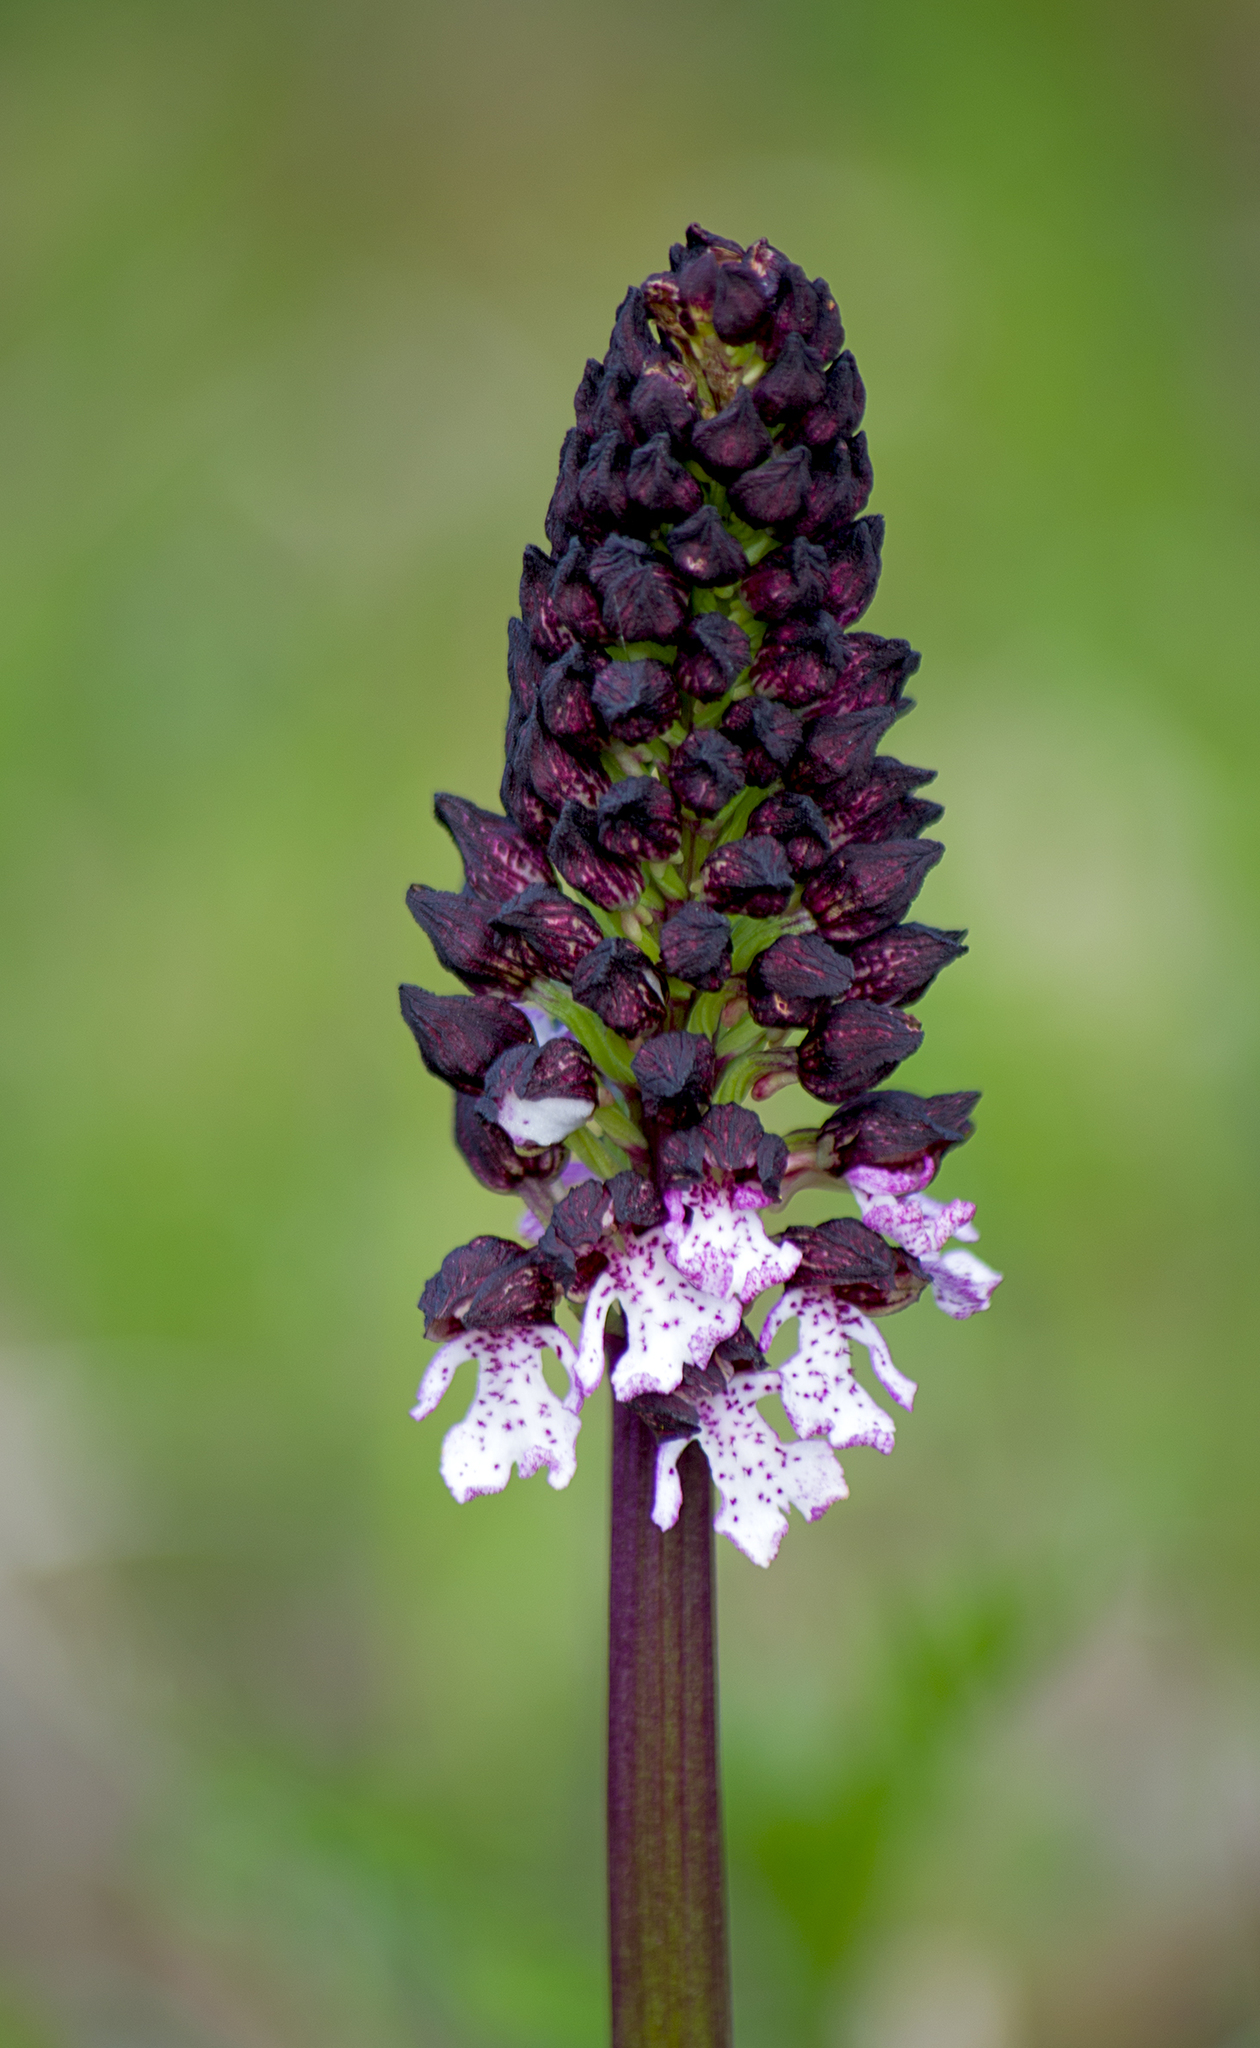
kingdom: Plantae
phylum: Tracheophyta
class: Liliopsida
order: Asparagales
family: Orchidaceae
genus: Orchis
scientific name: Orchis purpurea
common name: Lady orchid
